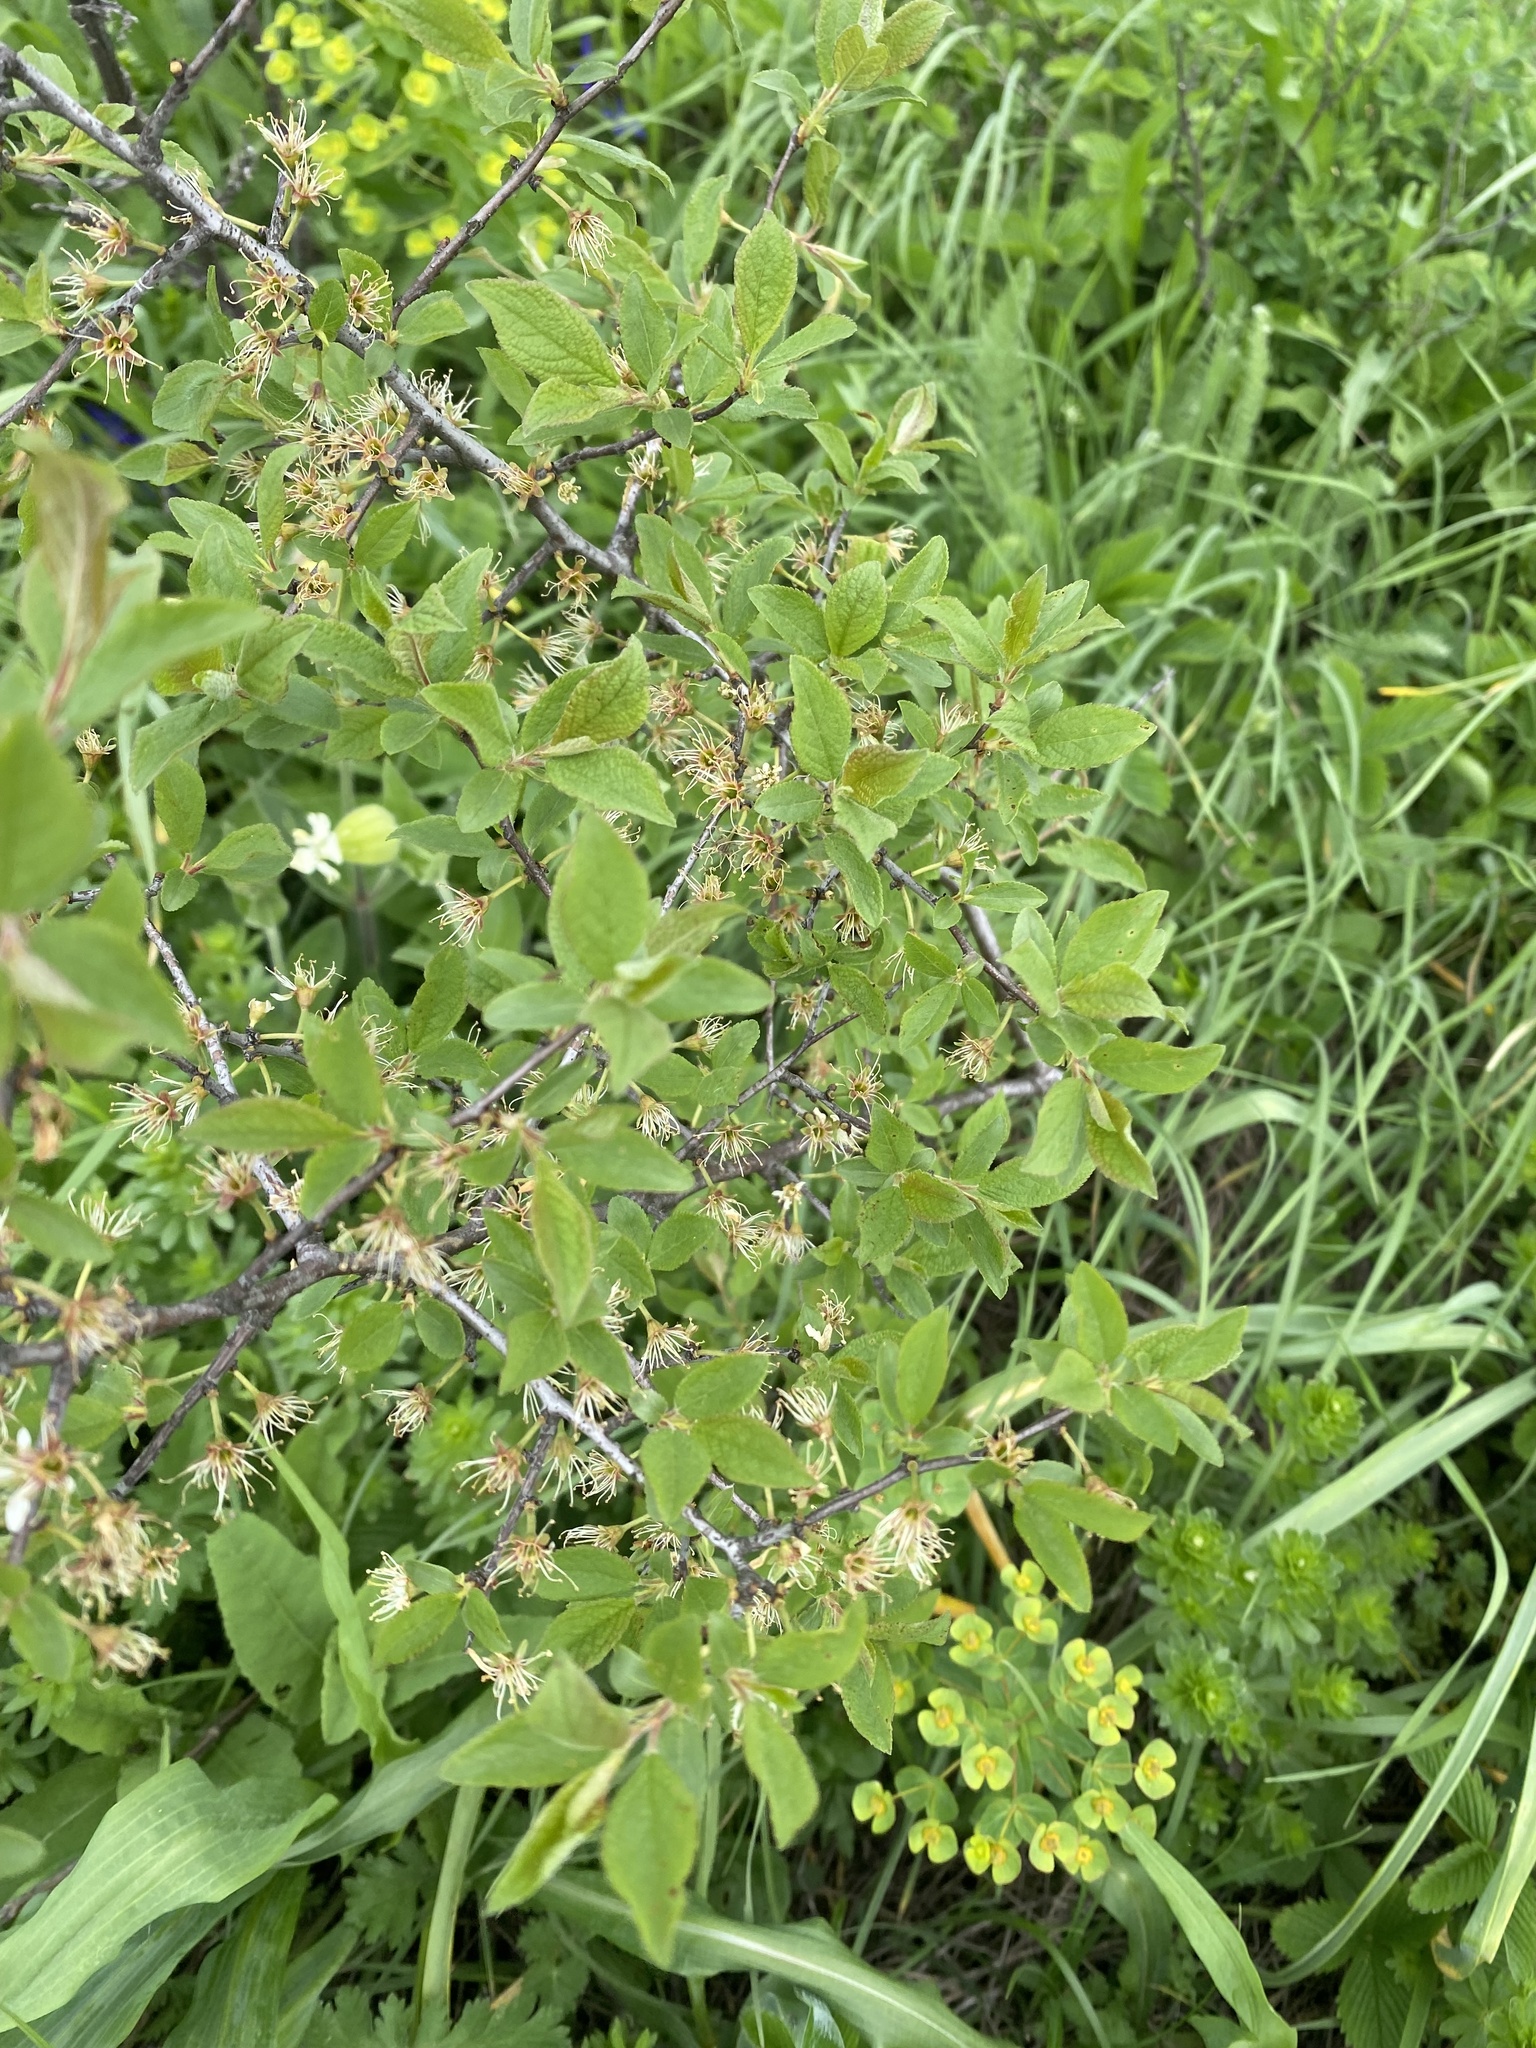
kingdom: Plantae
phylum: Tracheophyta
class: Magnoliopsida
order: Rosales
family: Rosaceae
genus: Prunus
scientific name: Prunus spinosa
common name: Blackthorn
